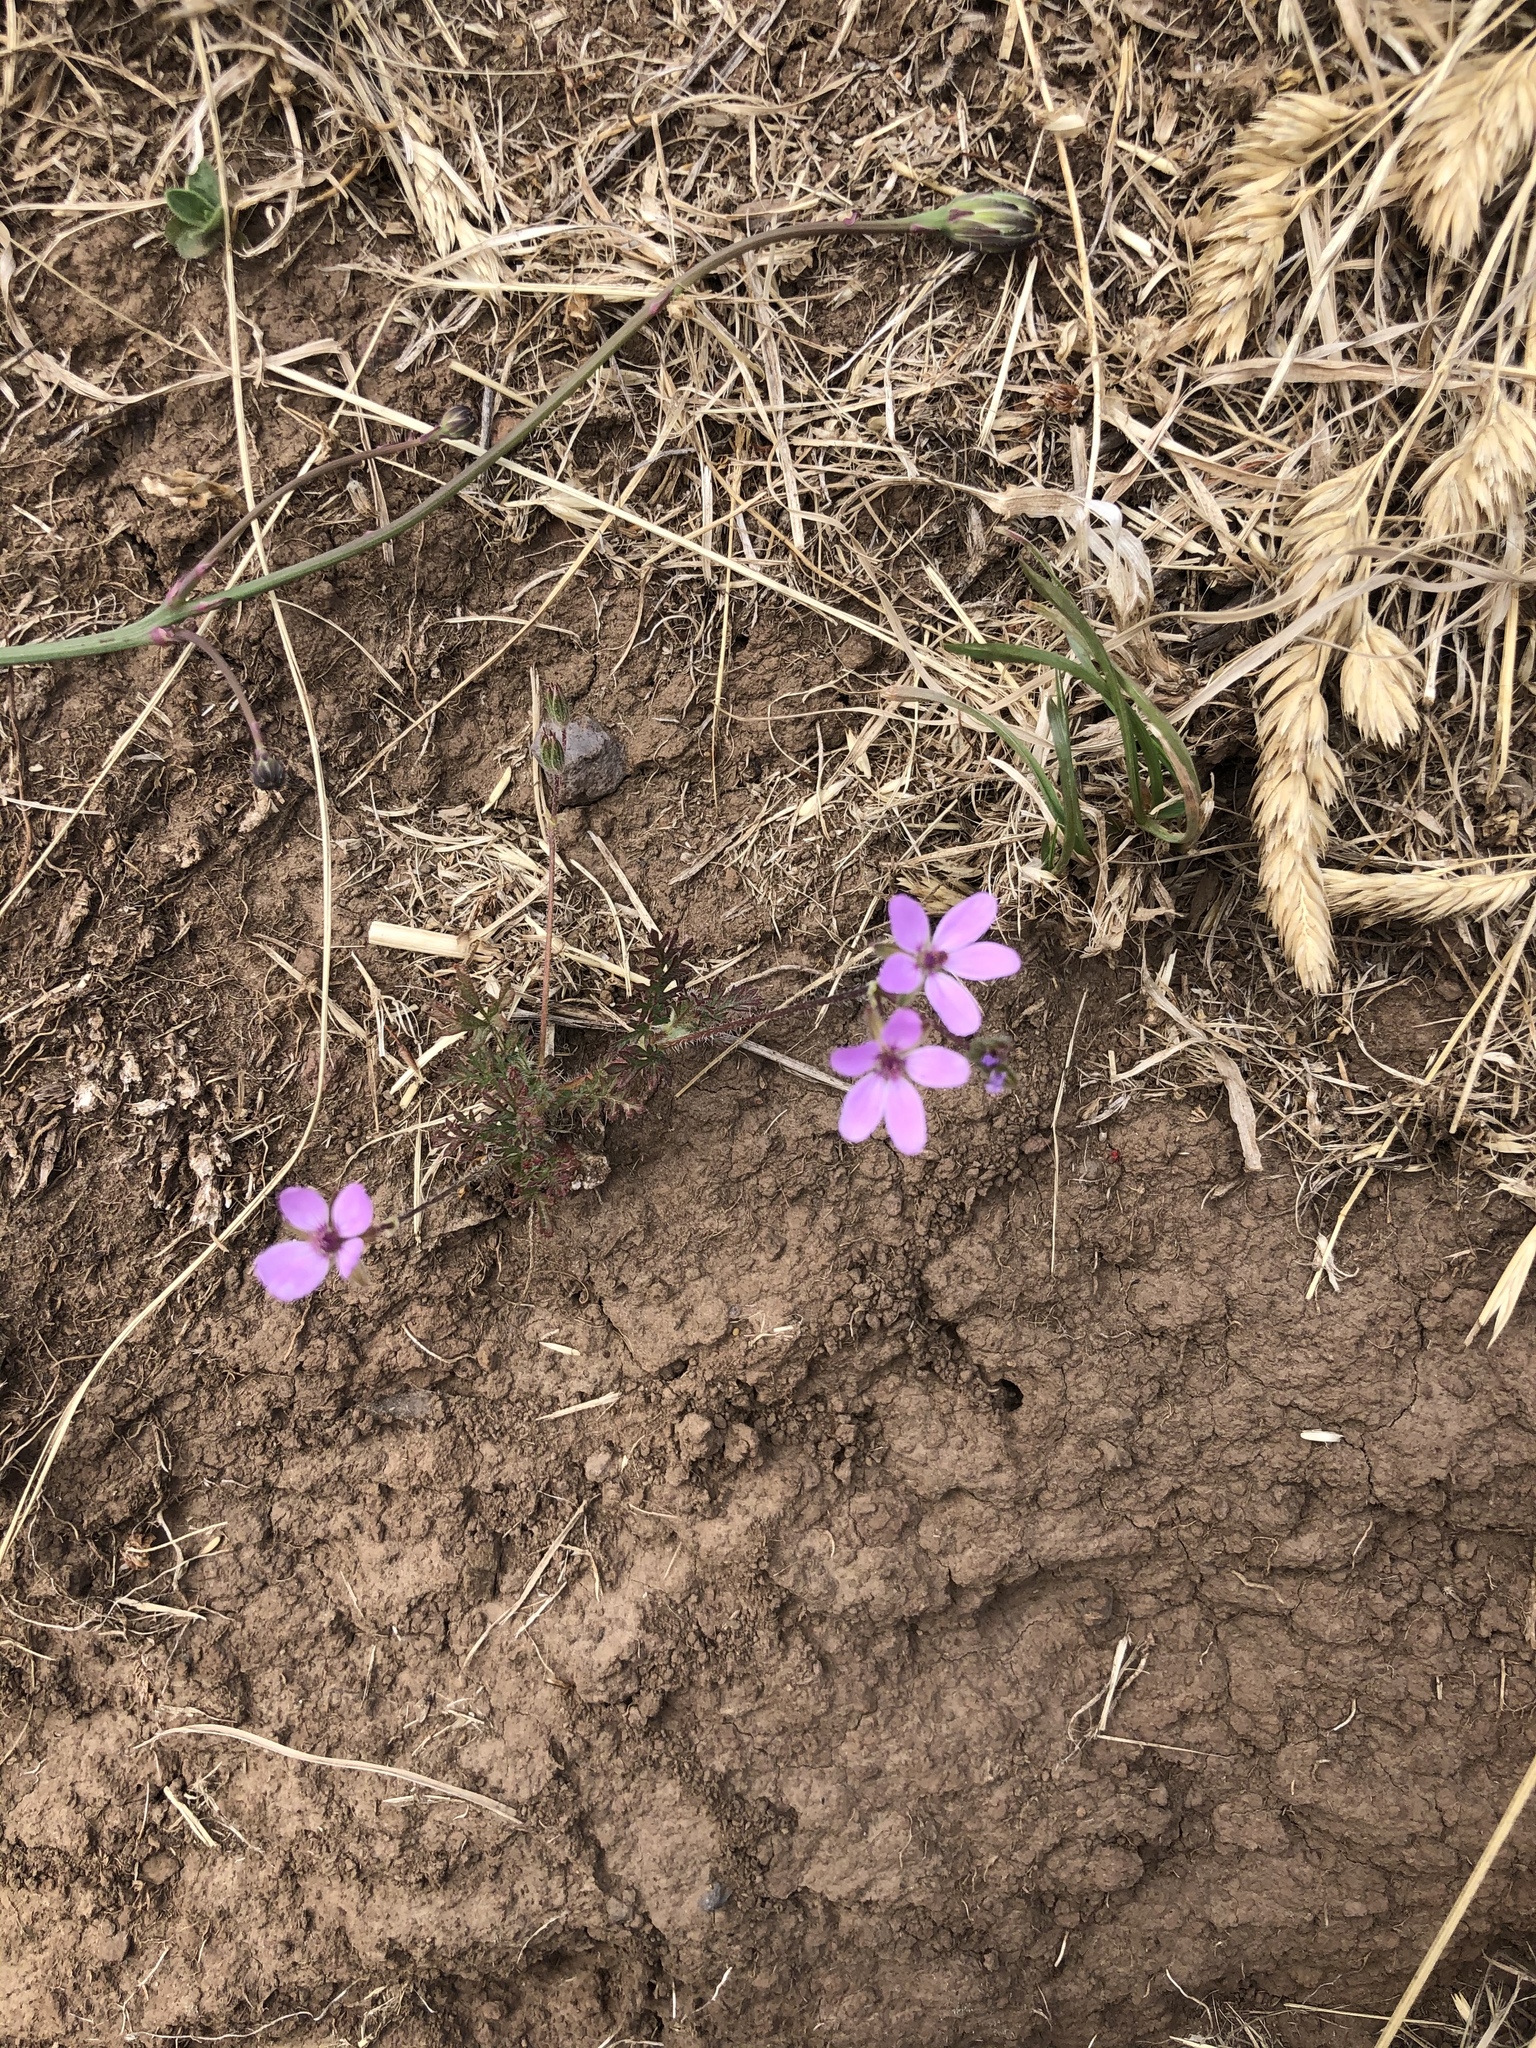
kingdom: Plantae
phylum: Tracheophyta
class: Magnoliopsida
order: Geraniales
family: Geraniaceae
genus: Erodium
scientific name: Erodium cicutarium
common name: Common stork's-bill
